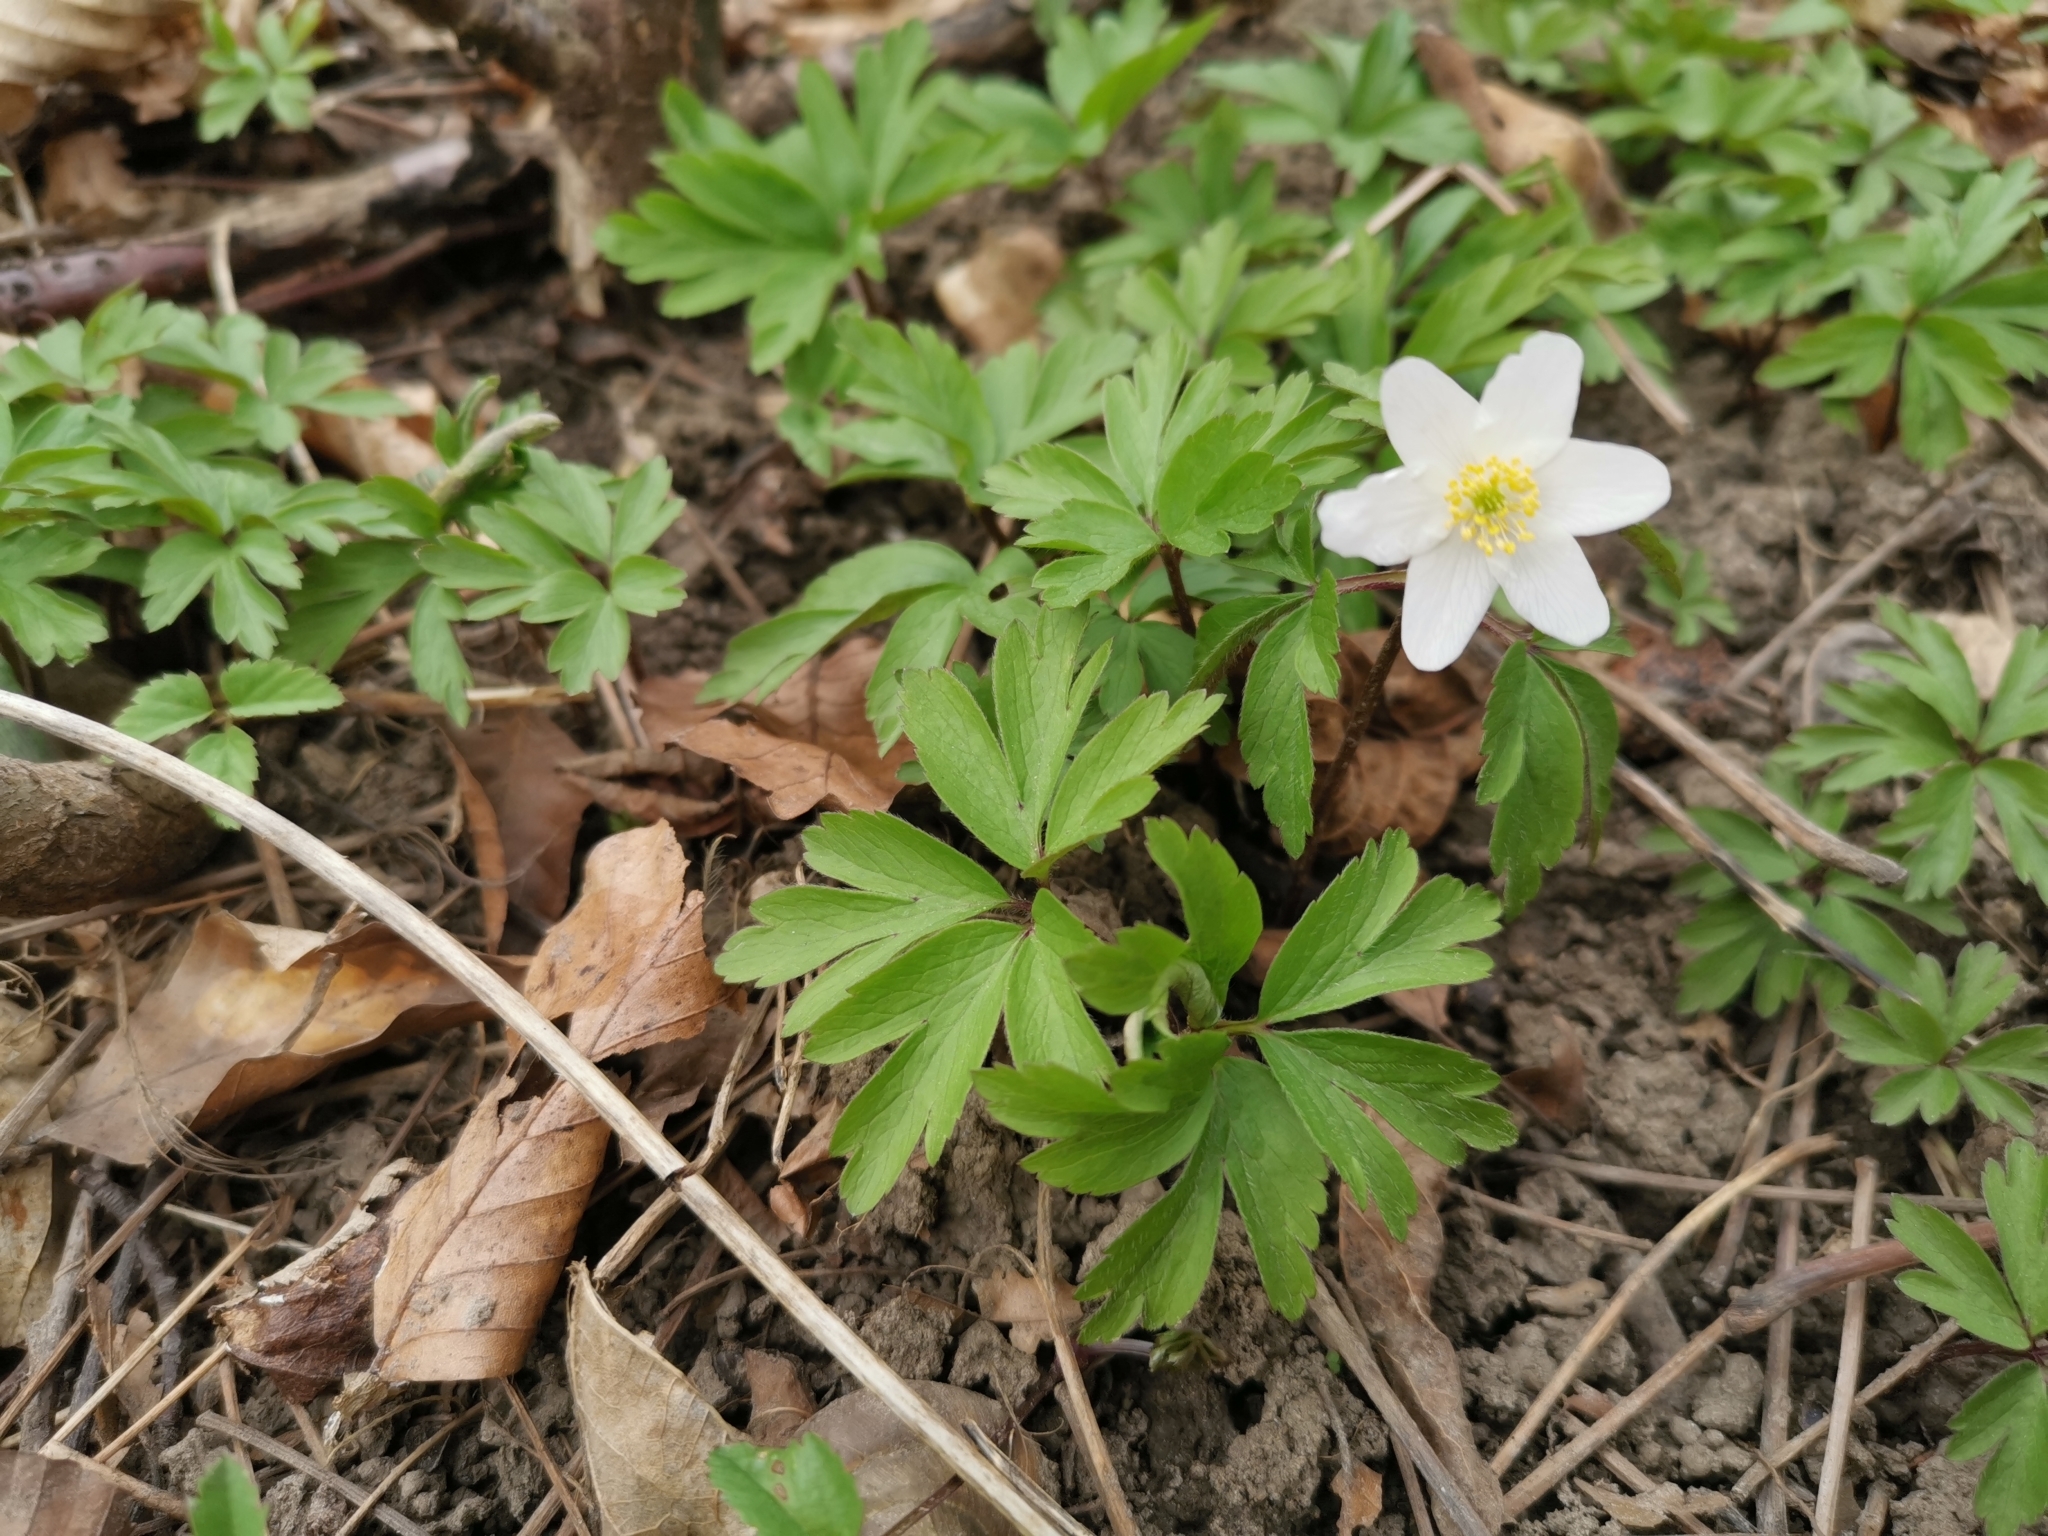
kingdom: Plantae
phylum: Tracheophyta
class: Magnoliopsida
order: Ranunculales
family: Ranunculaceae
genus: Anemone
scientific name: Anemone nemorosa
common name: Wood anemone
